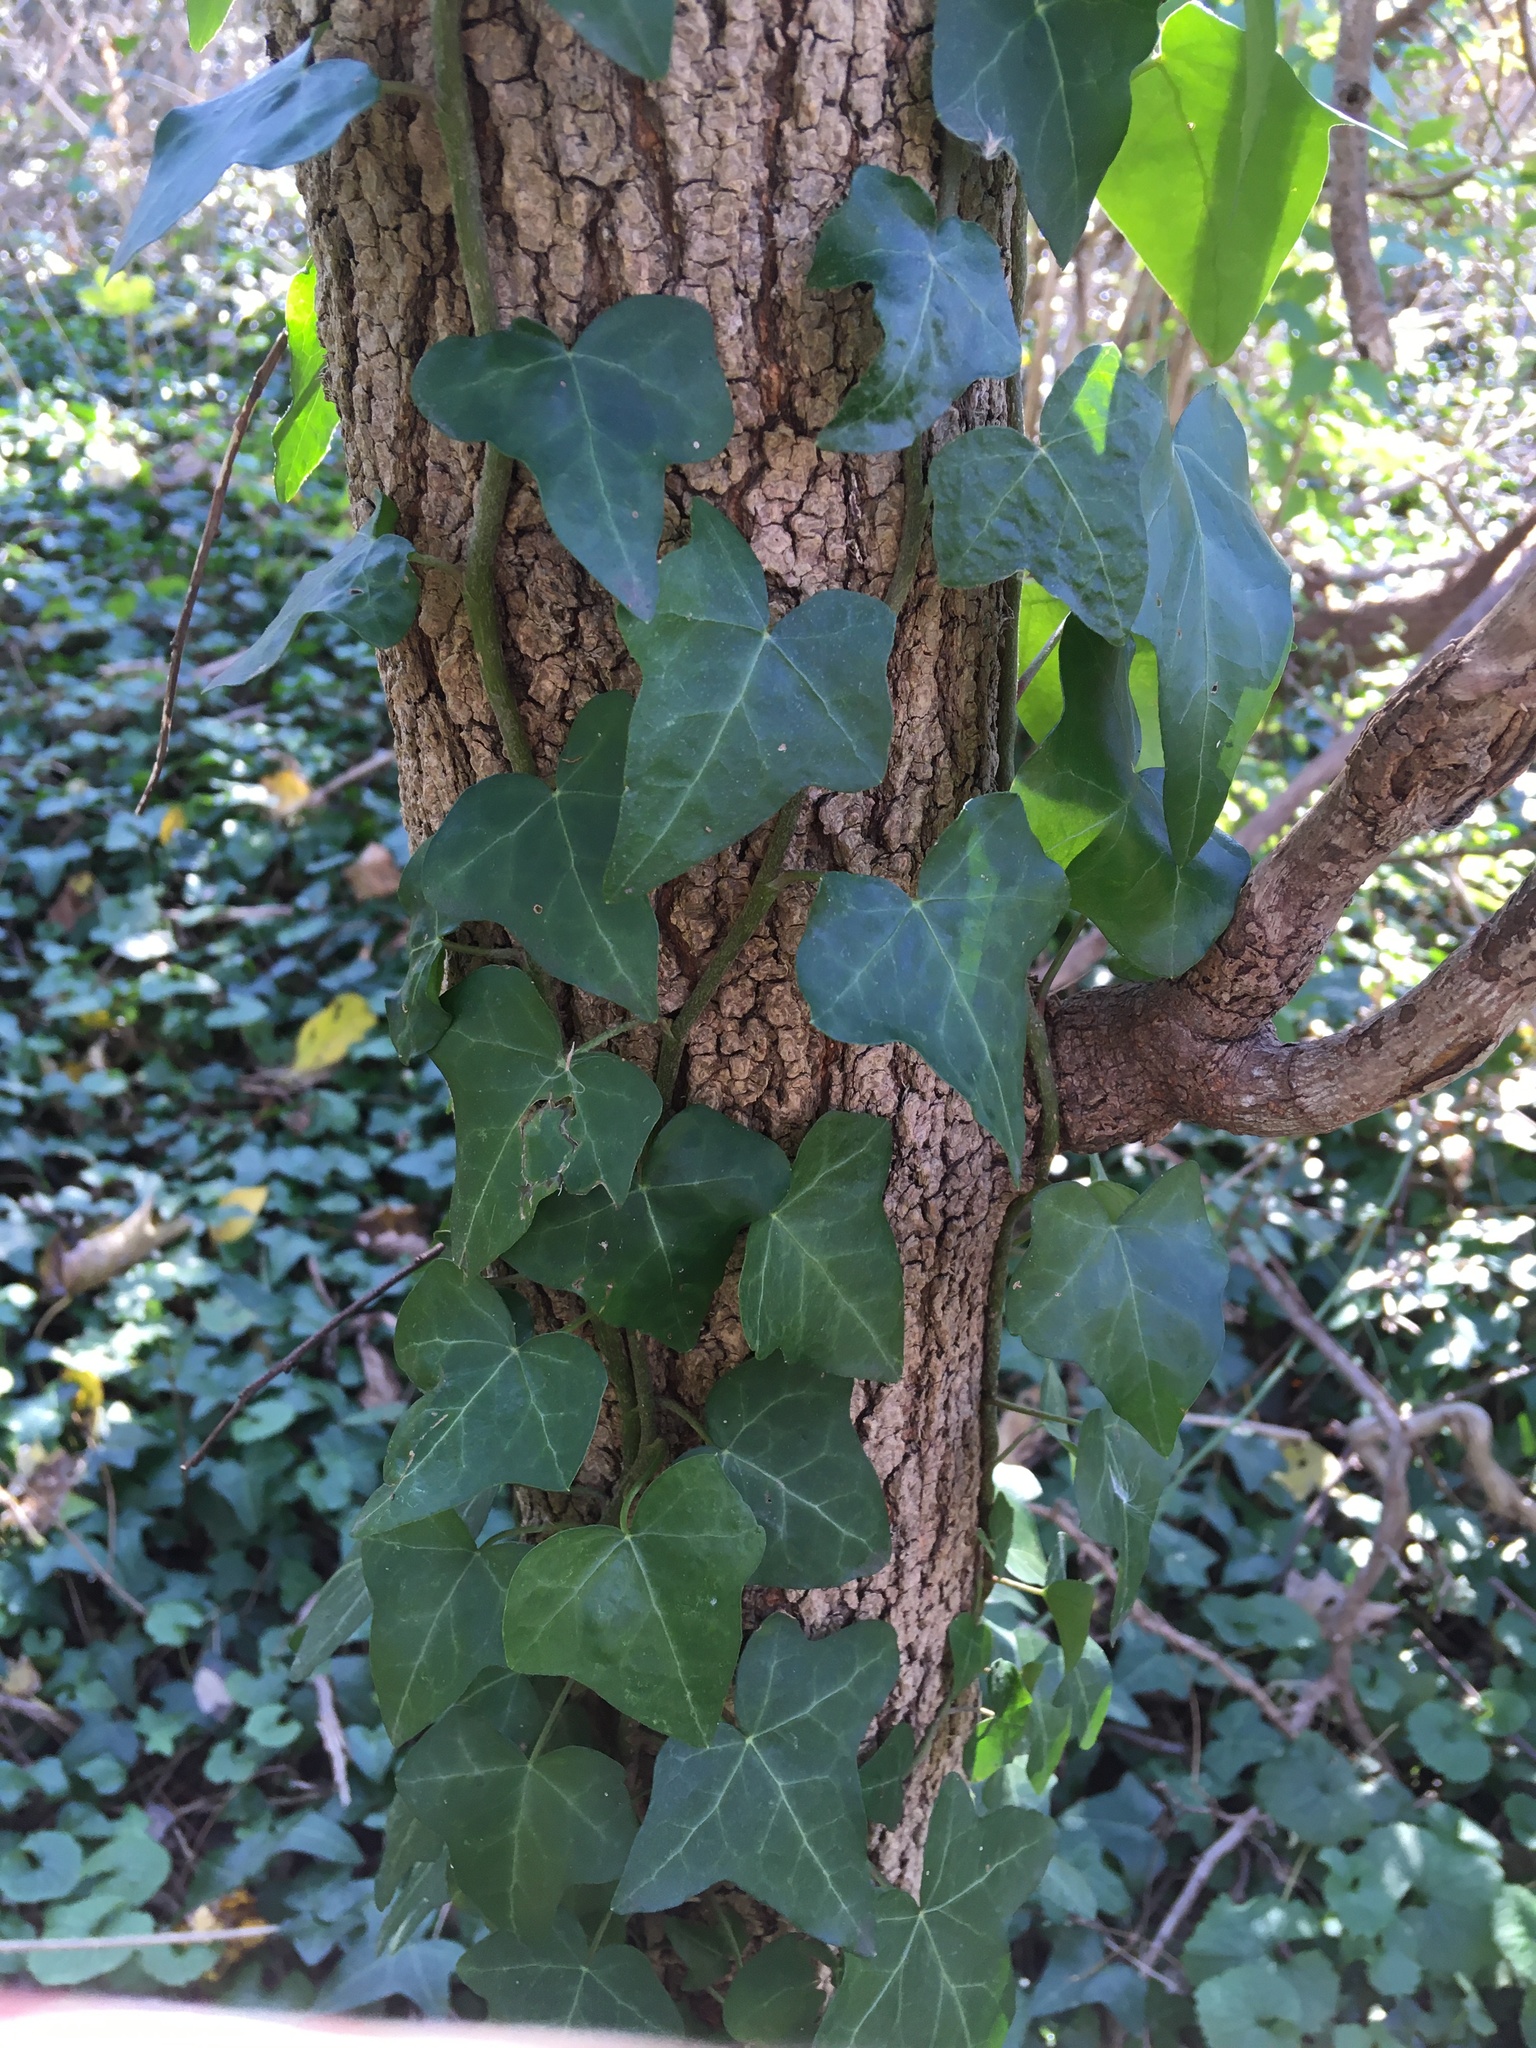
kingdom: Plantae
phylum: Tracheophyta
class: Magnoliopsida
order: Apiales
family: Araliaceae
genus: Hedera
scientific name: Hedera helix
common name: Ivy
